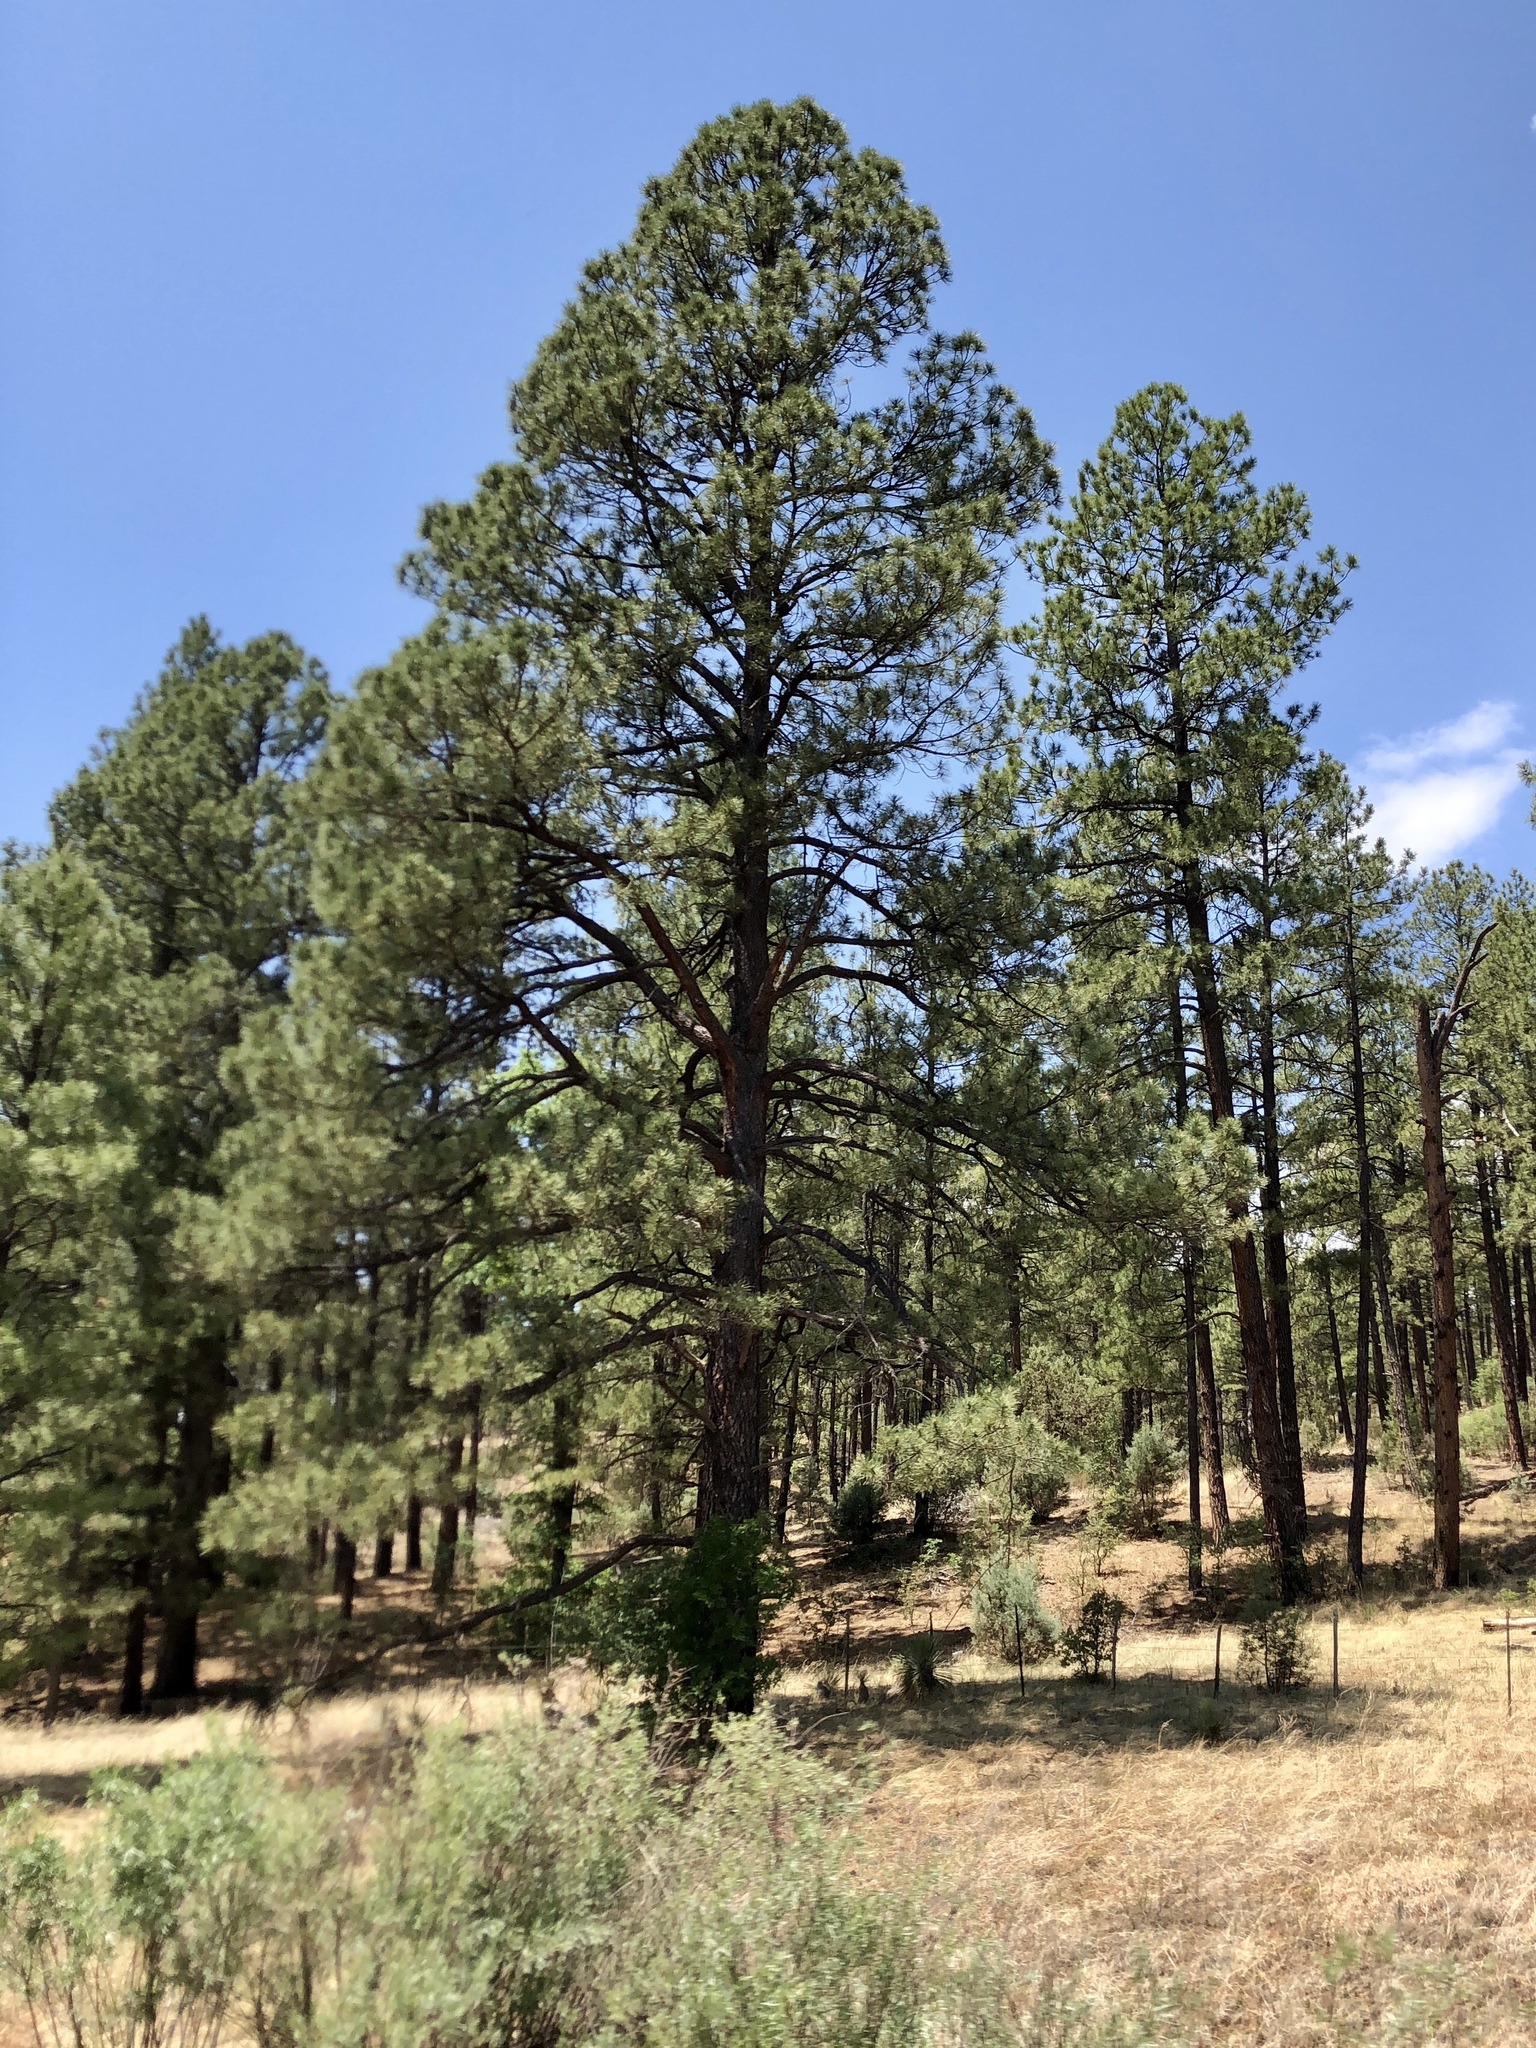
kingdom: Plantae
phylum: Tracheophyta
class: Pinopsida
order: Pinales
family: Pinaceae
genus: Pinus
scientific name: Pinus ponderosa
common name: Western yellow-pine
